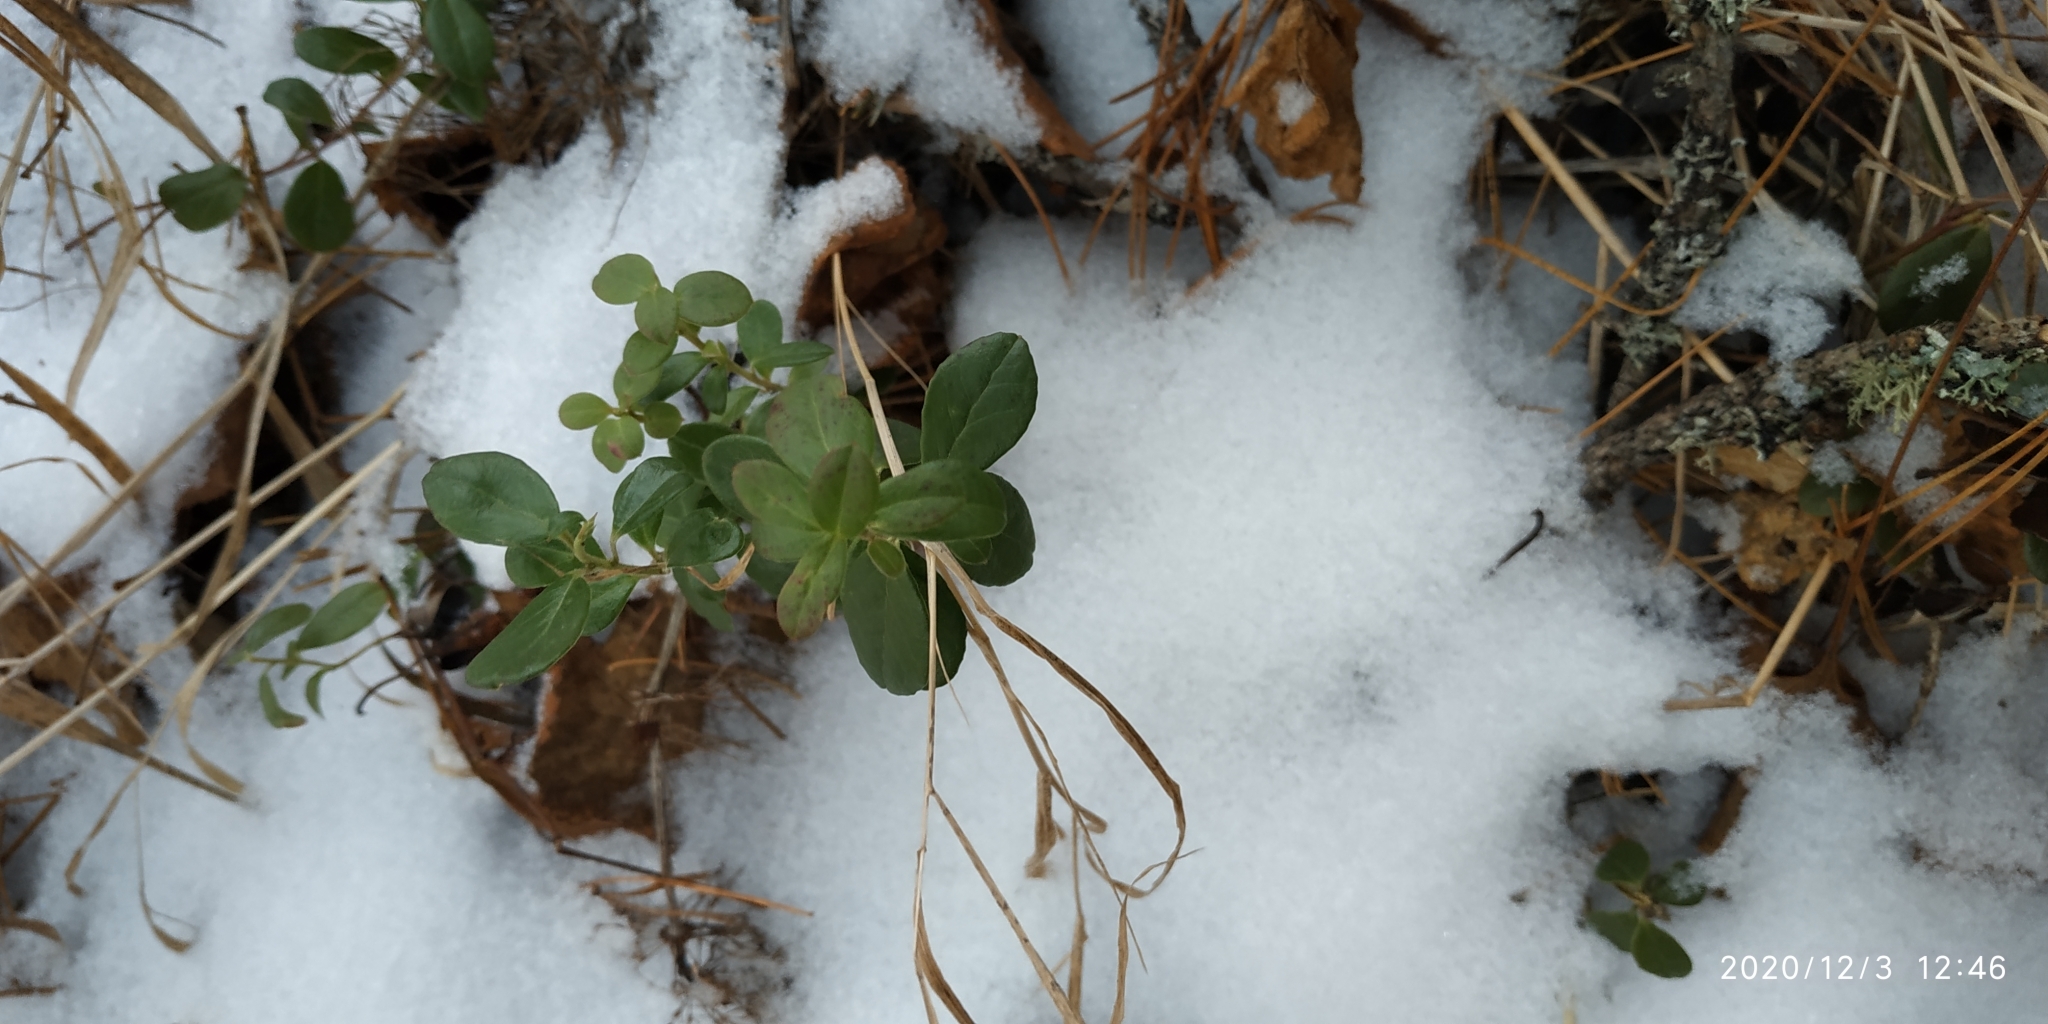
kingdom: Plantae
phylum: Tracheophyta
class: Magnoliopsida
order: Ericales
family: Ericaceae
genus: Vaccinium
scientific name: Vaccinium vitis-idaea
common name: Cowberry
